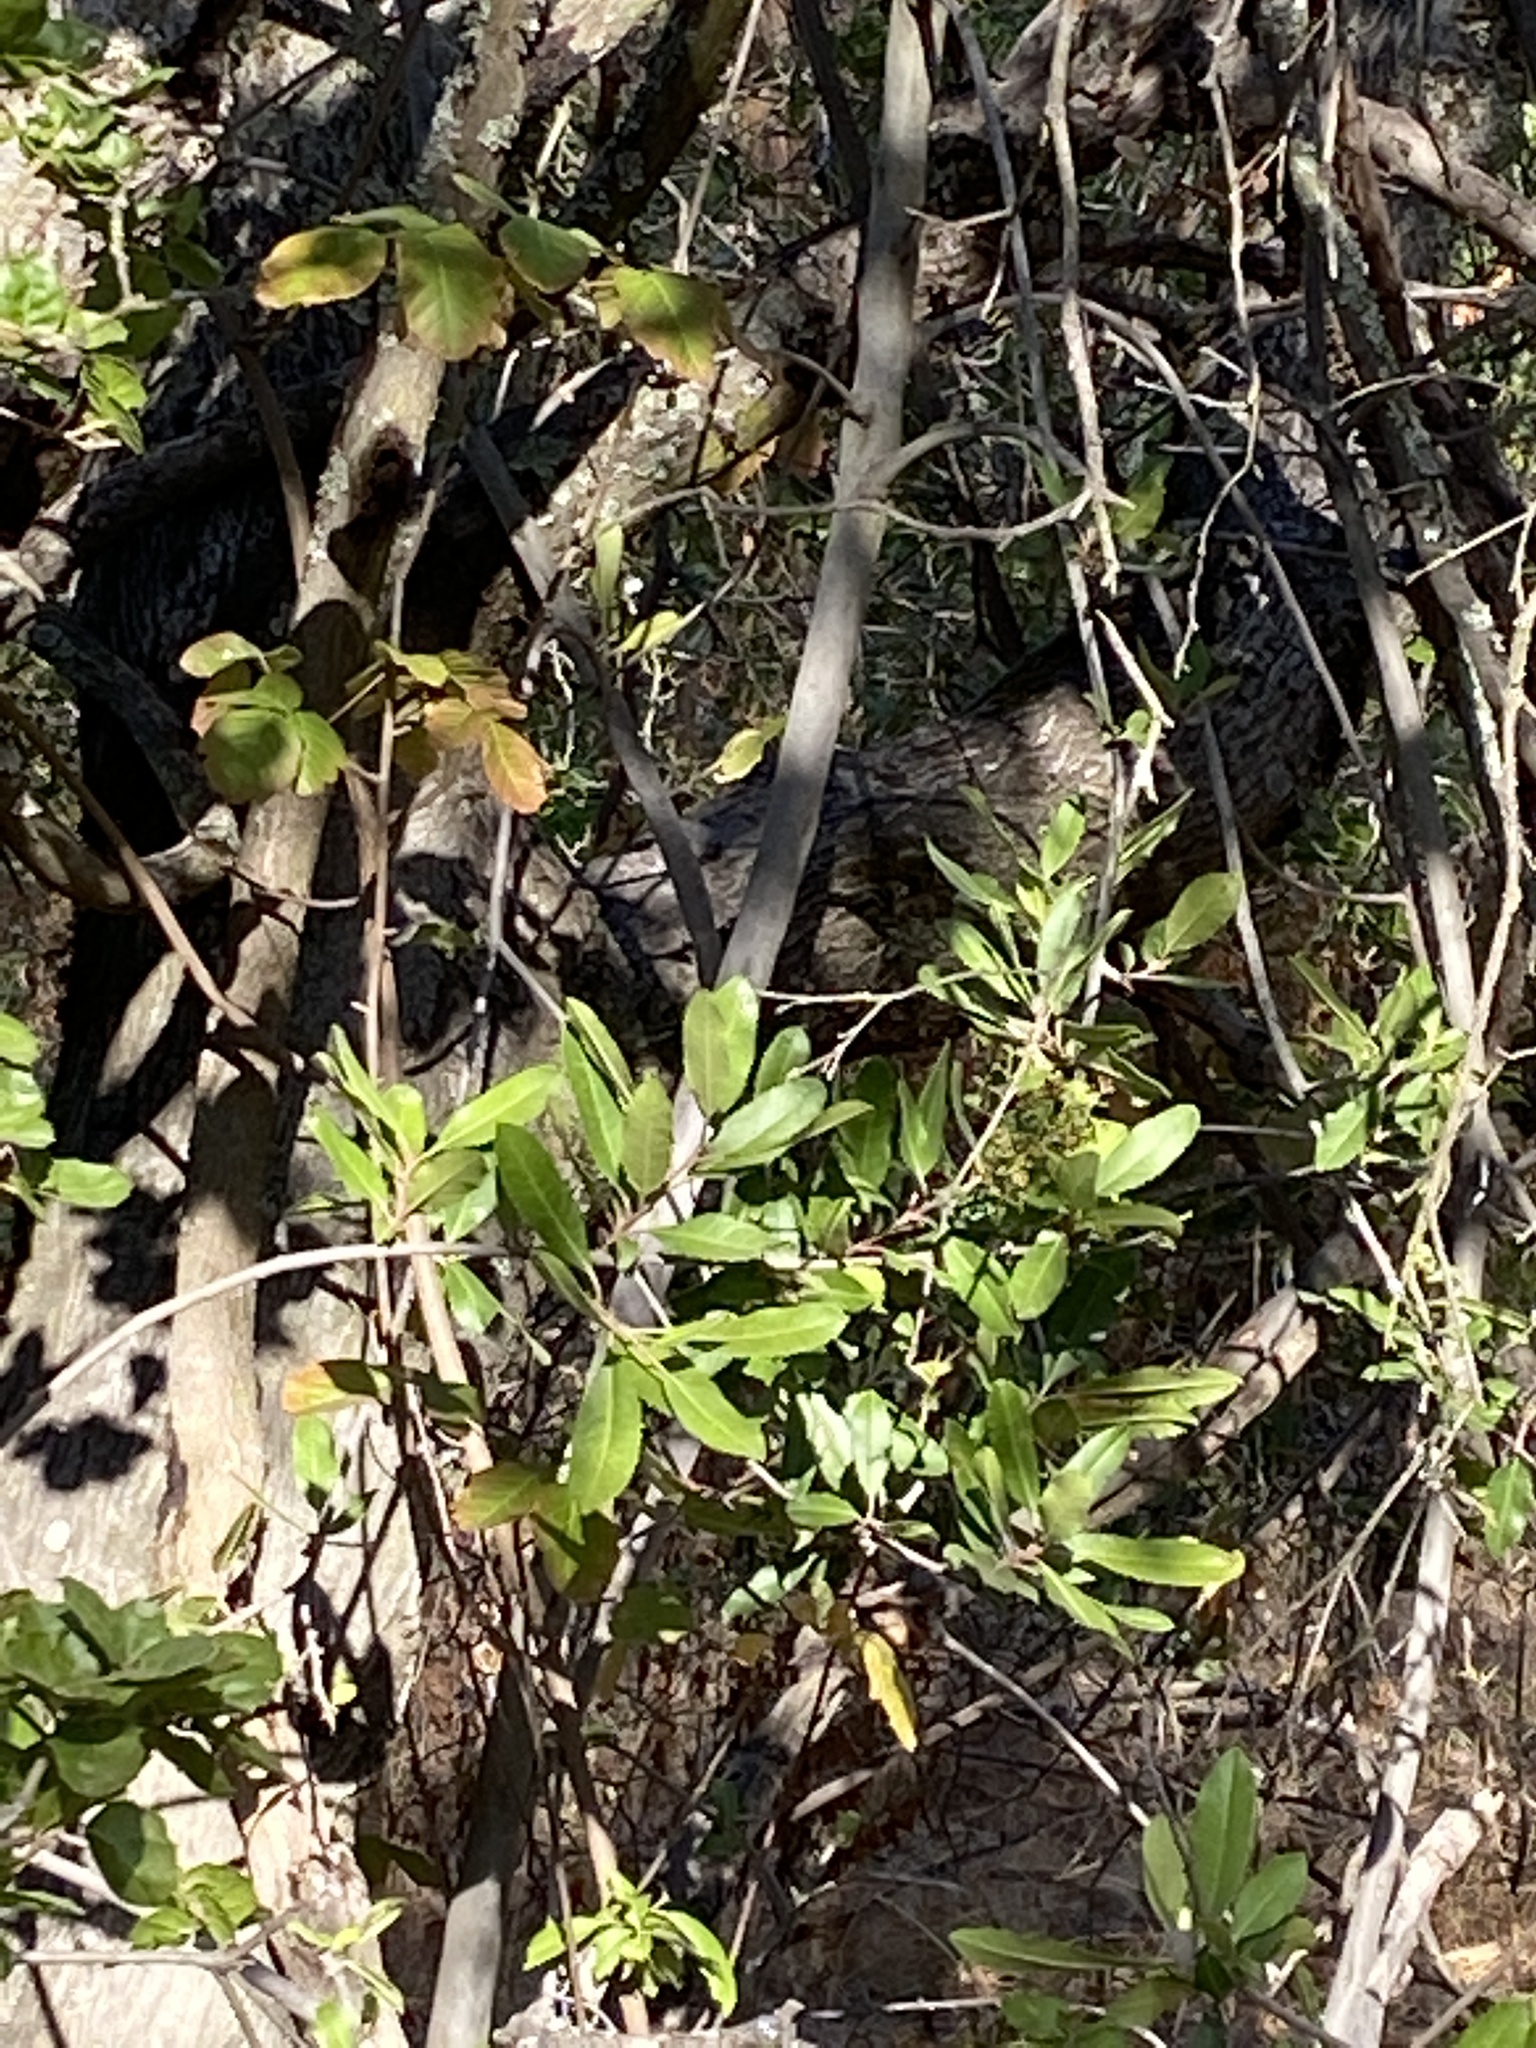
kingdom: Plantae
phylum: Tracheophyta
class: Magnoliopsida
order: Rosales
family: Rosaceae
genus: Heteromeles
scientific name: Heteromeles arbutifolia
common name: California-holly
